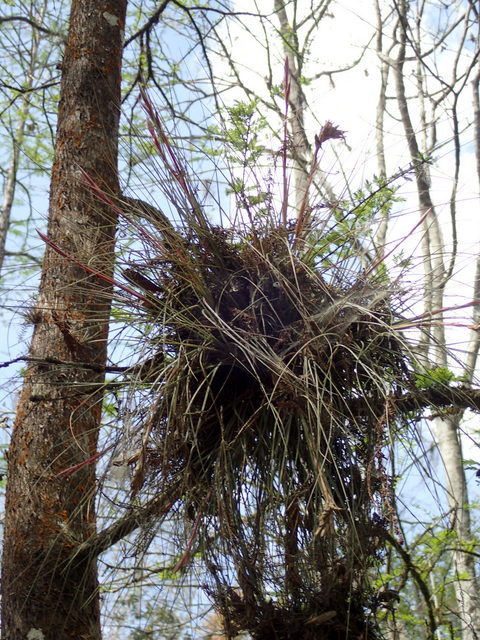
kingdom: Plantae
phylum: Tracheophyta
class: Liliopsida
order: Poales
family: Bromeliaceae
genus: Tillandsia
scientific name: Tillandsia bartramii
